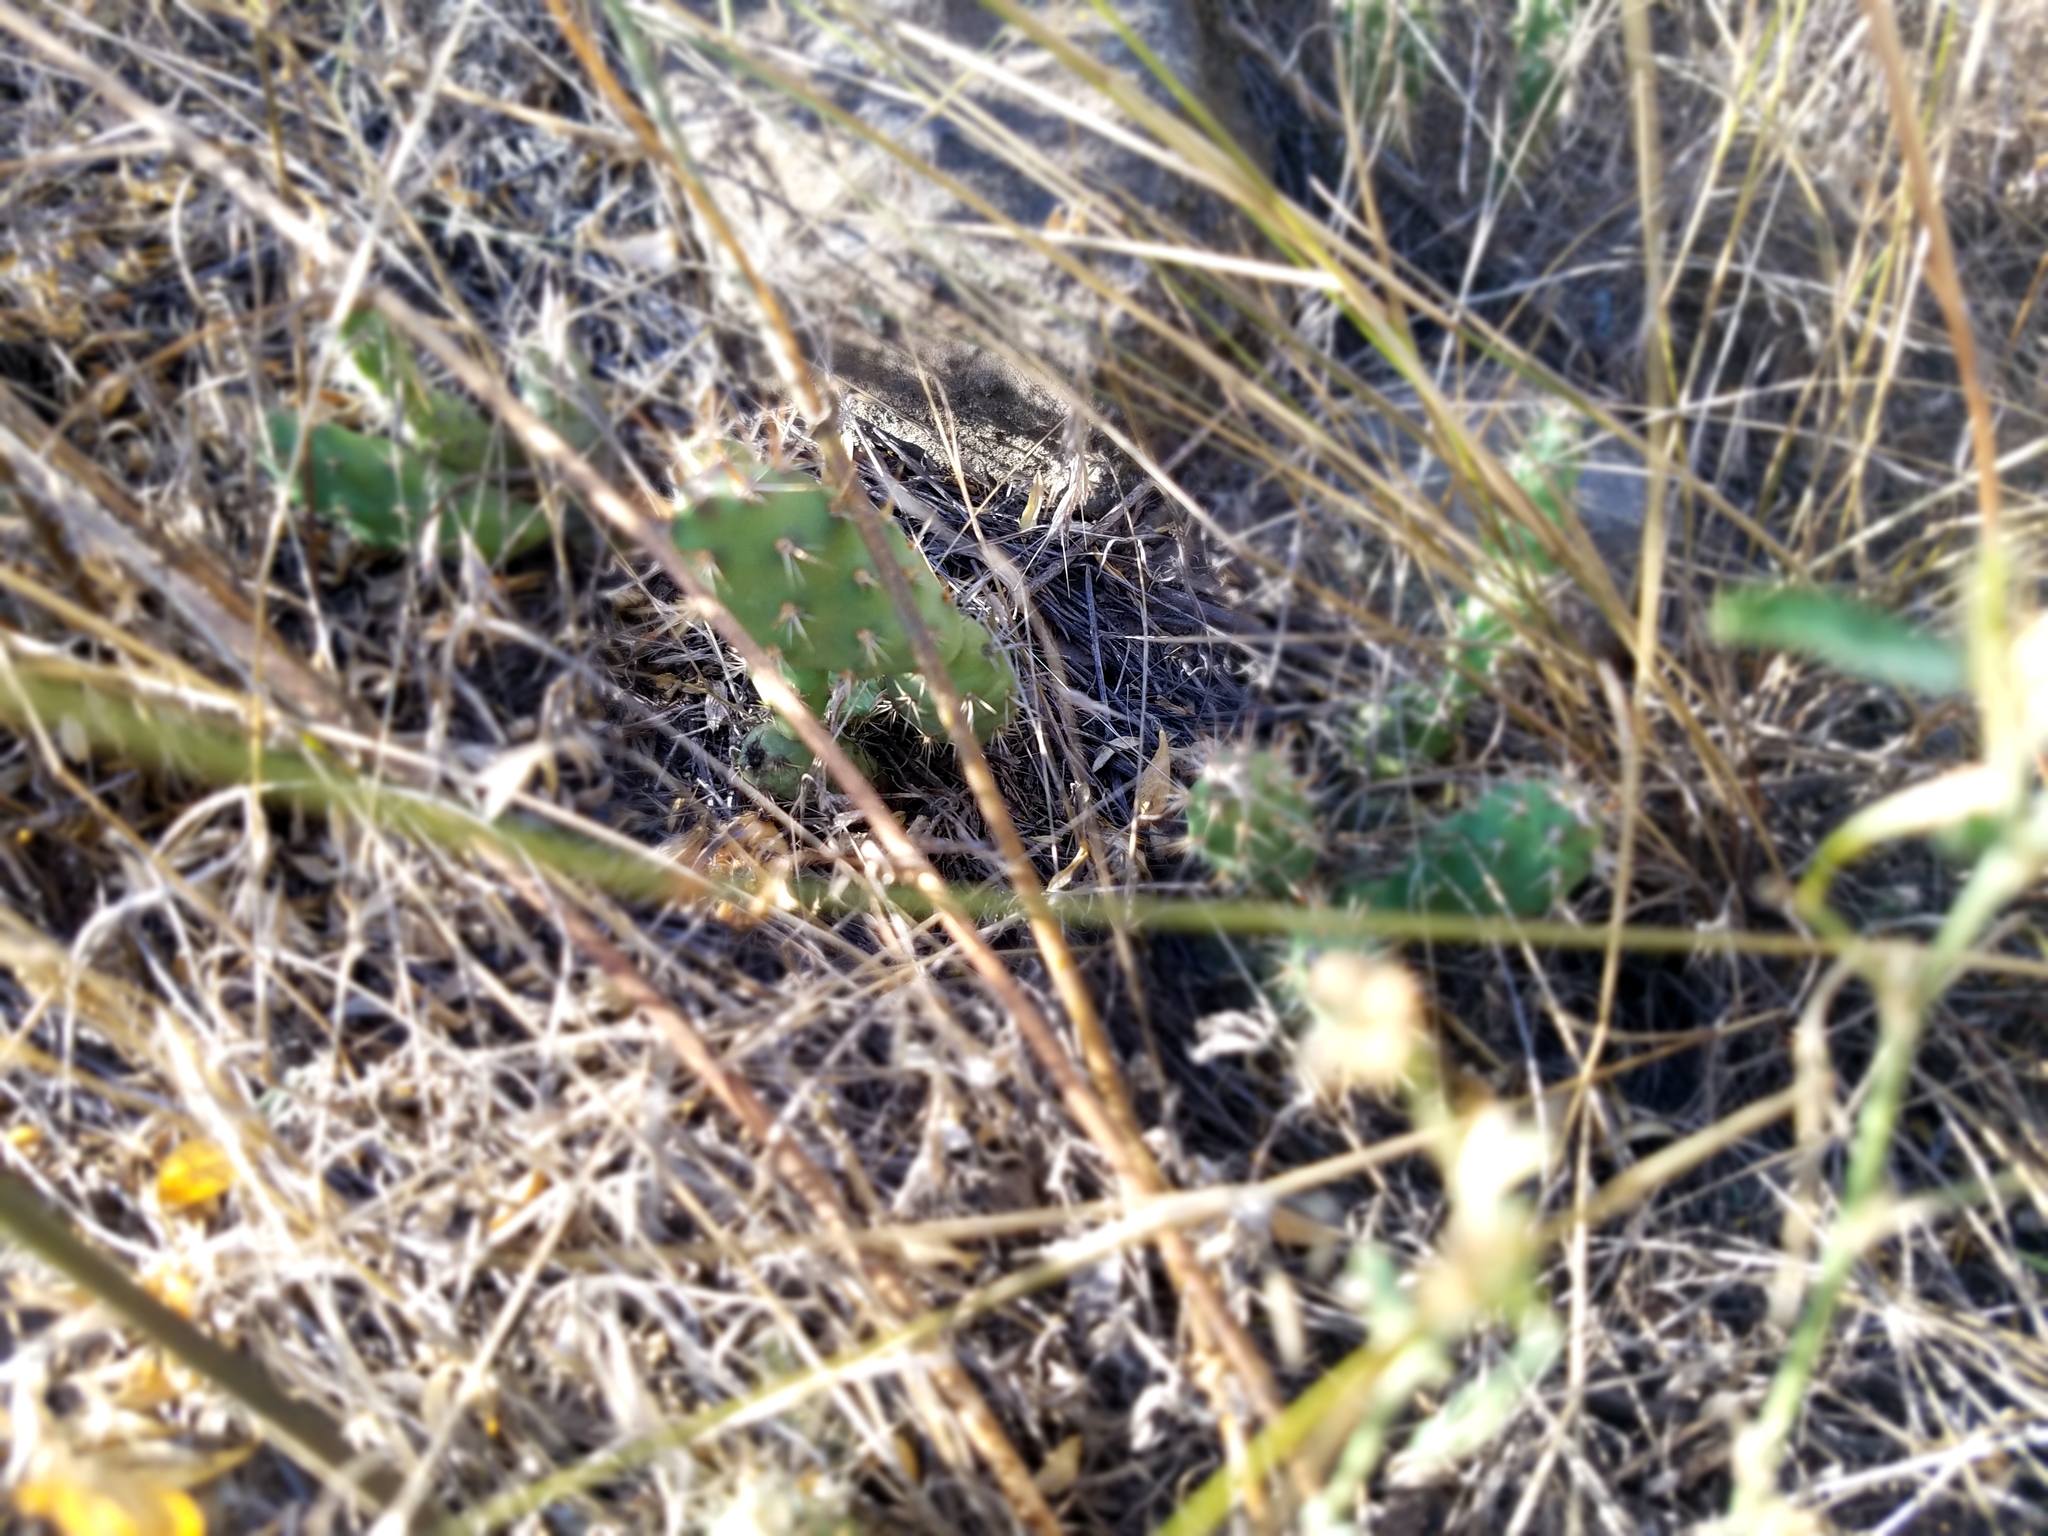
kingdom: Plantae
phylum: Tracheophyta
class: Magnoliopsida
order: Caryophyllales
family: Cactaceae
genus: Opuntia
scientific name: Opuntia fragilis
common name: Brittle cactus
